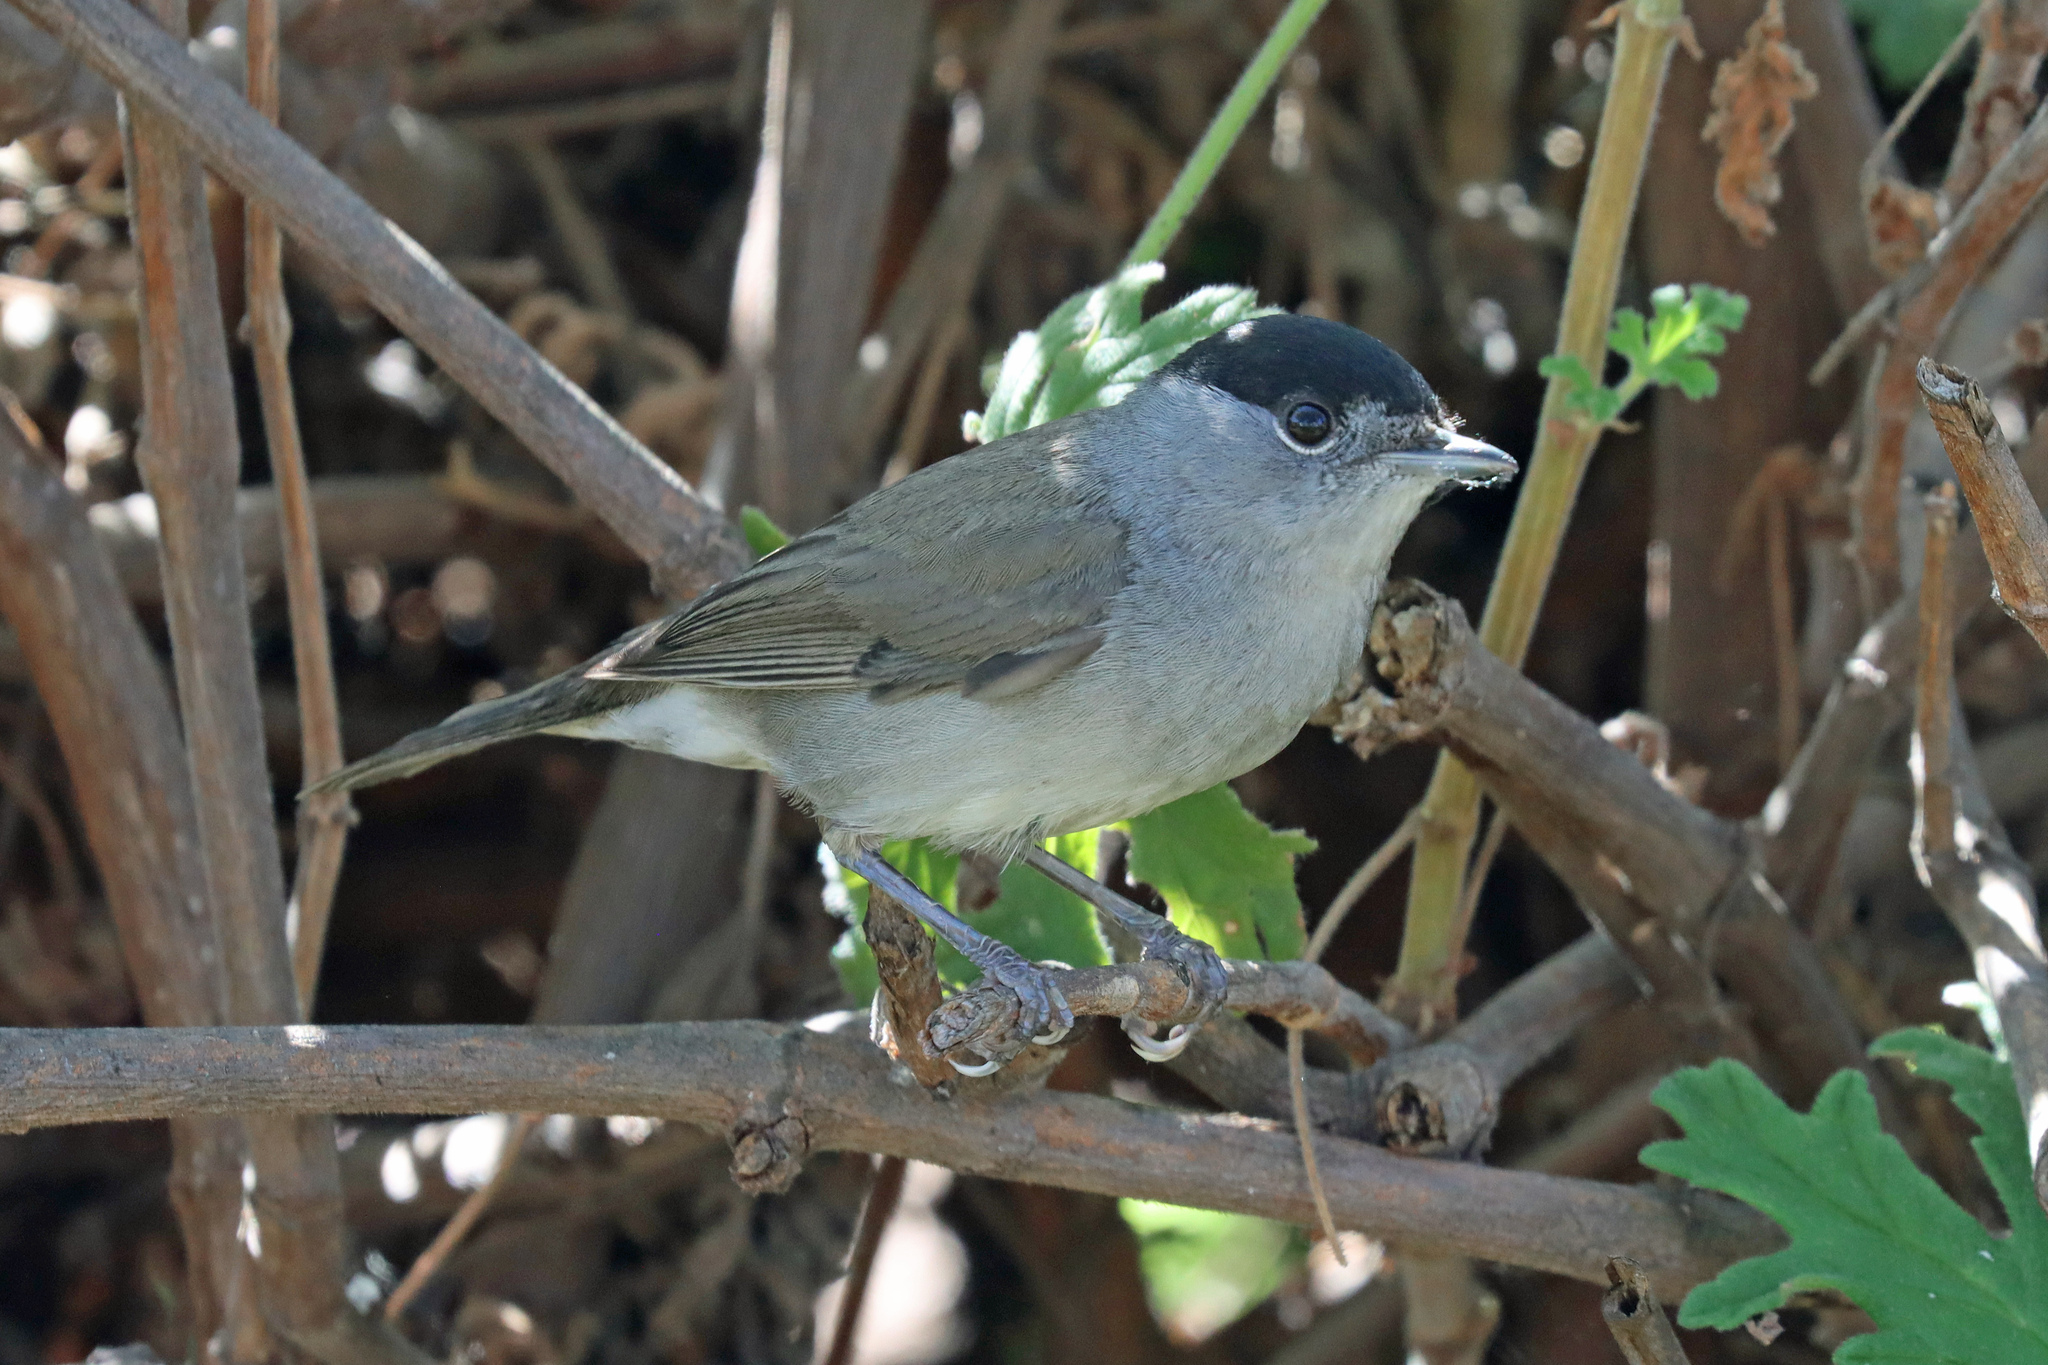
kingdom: Animalia
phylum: Chordata
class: Aves
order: Passeriformes
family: Sylviidae
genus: Sylvia
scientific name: Sylvia atricapilla
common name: Eurasian blackcap
